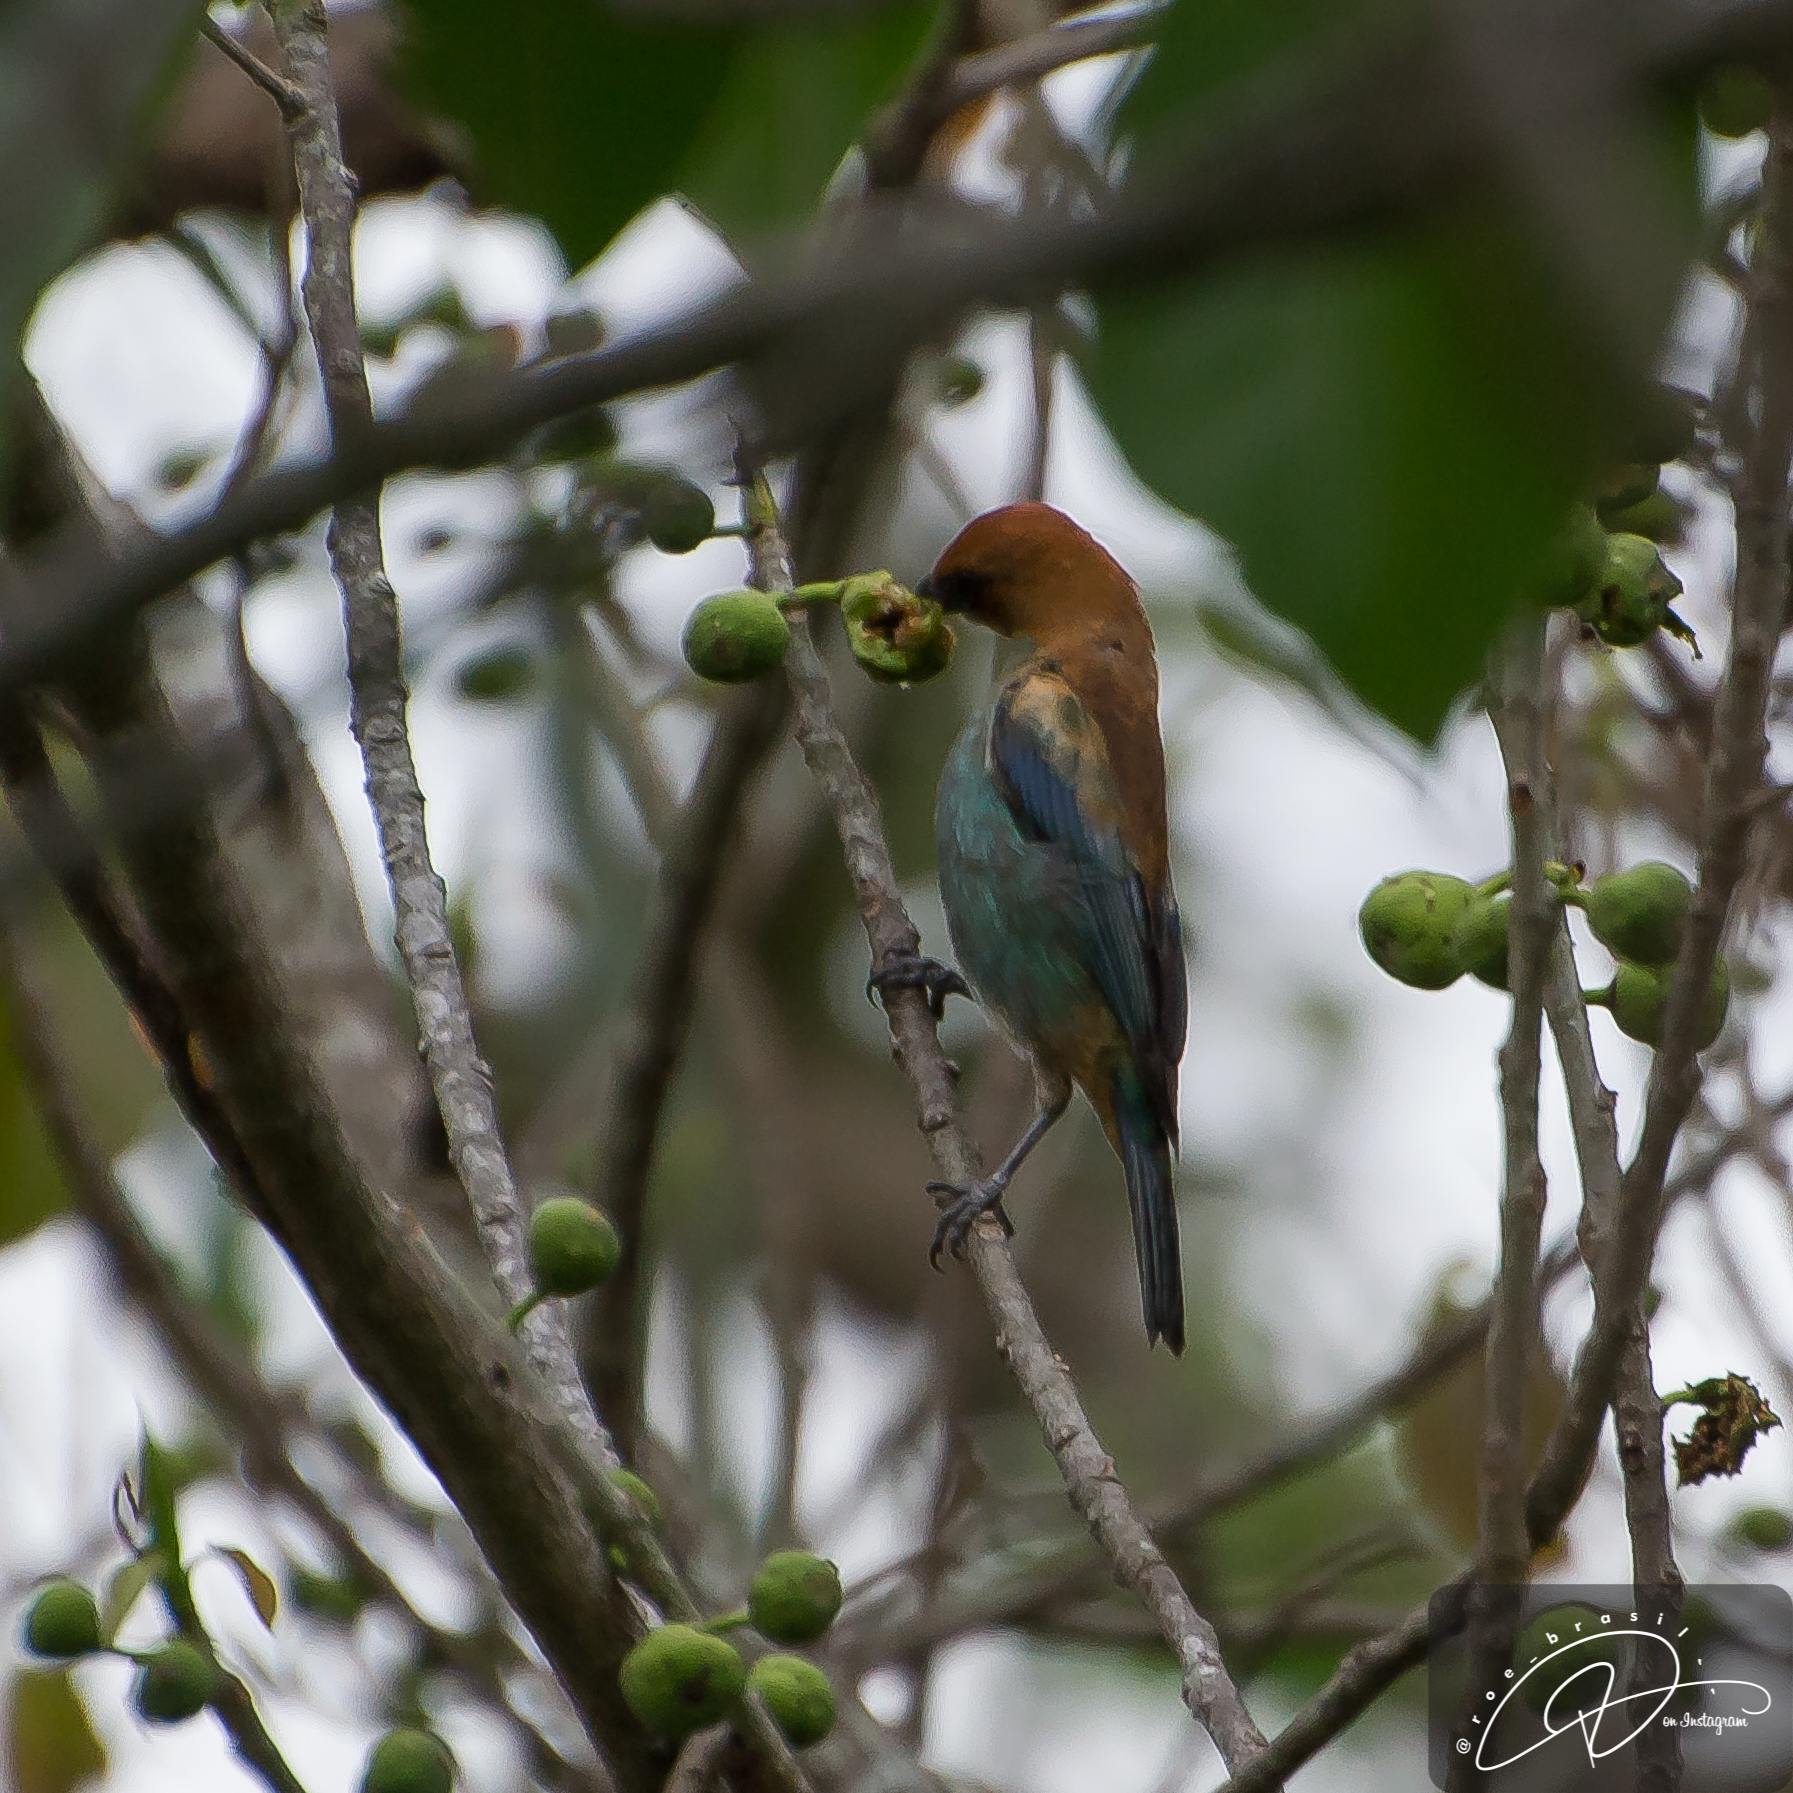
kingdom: Animalia
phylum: Chordata
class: Aves
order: Passeriformes
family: Thraupidae
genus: Stilpnia
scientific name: Stilpnia preciosa
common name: Chestnut-backed tanager
